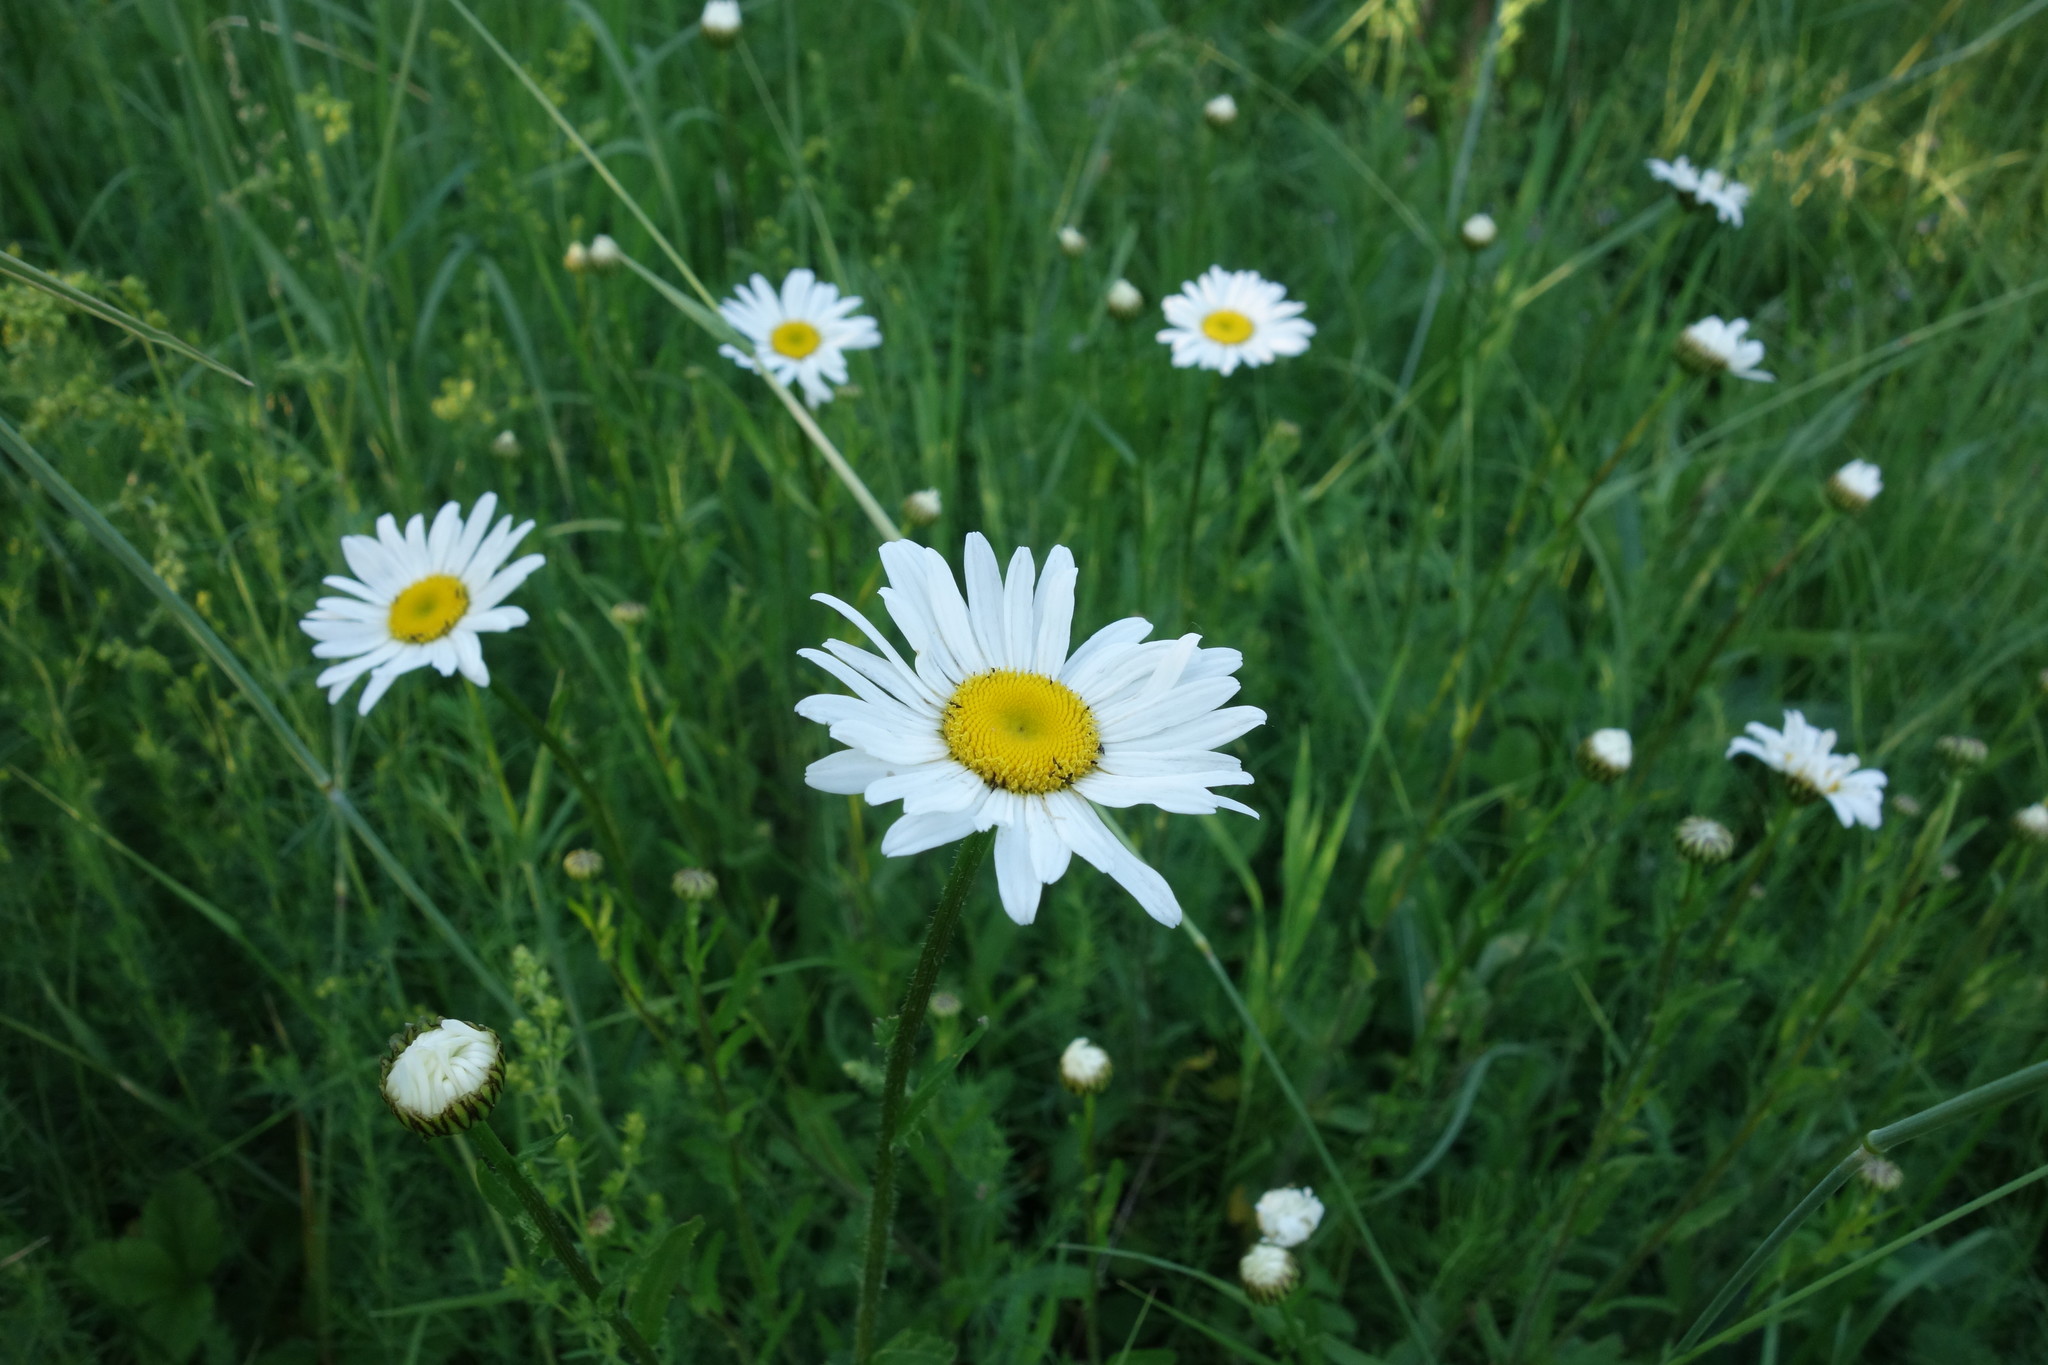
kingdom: Plantae
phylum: Tracheophyta
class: Magnoliopsida
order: Asterales
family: Asteraceae
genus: Leucanthemum
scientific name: Leucanthemum vulgare
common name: Oxeye daisy
